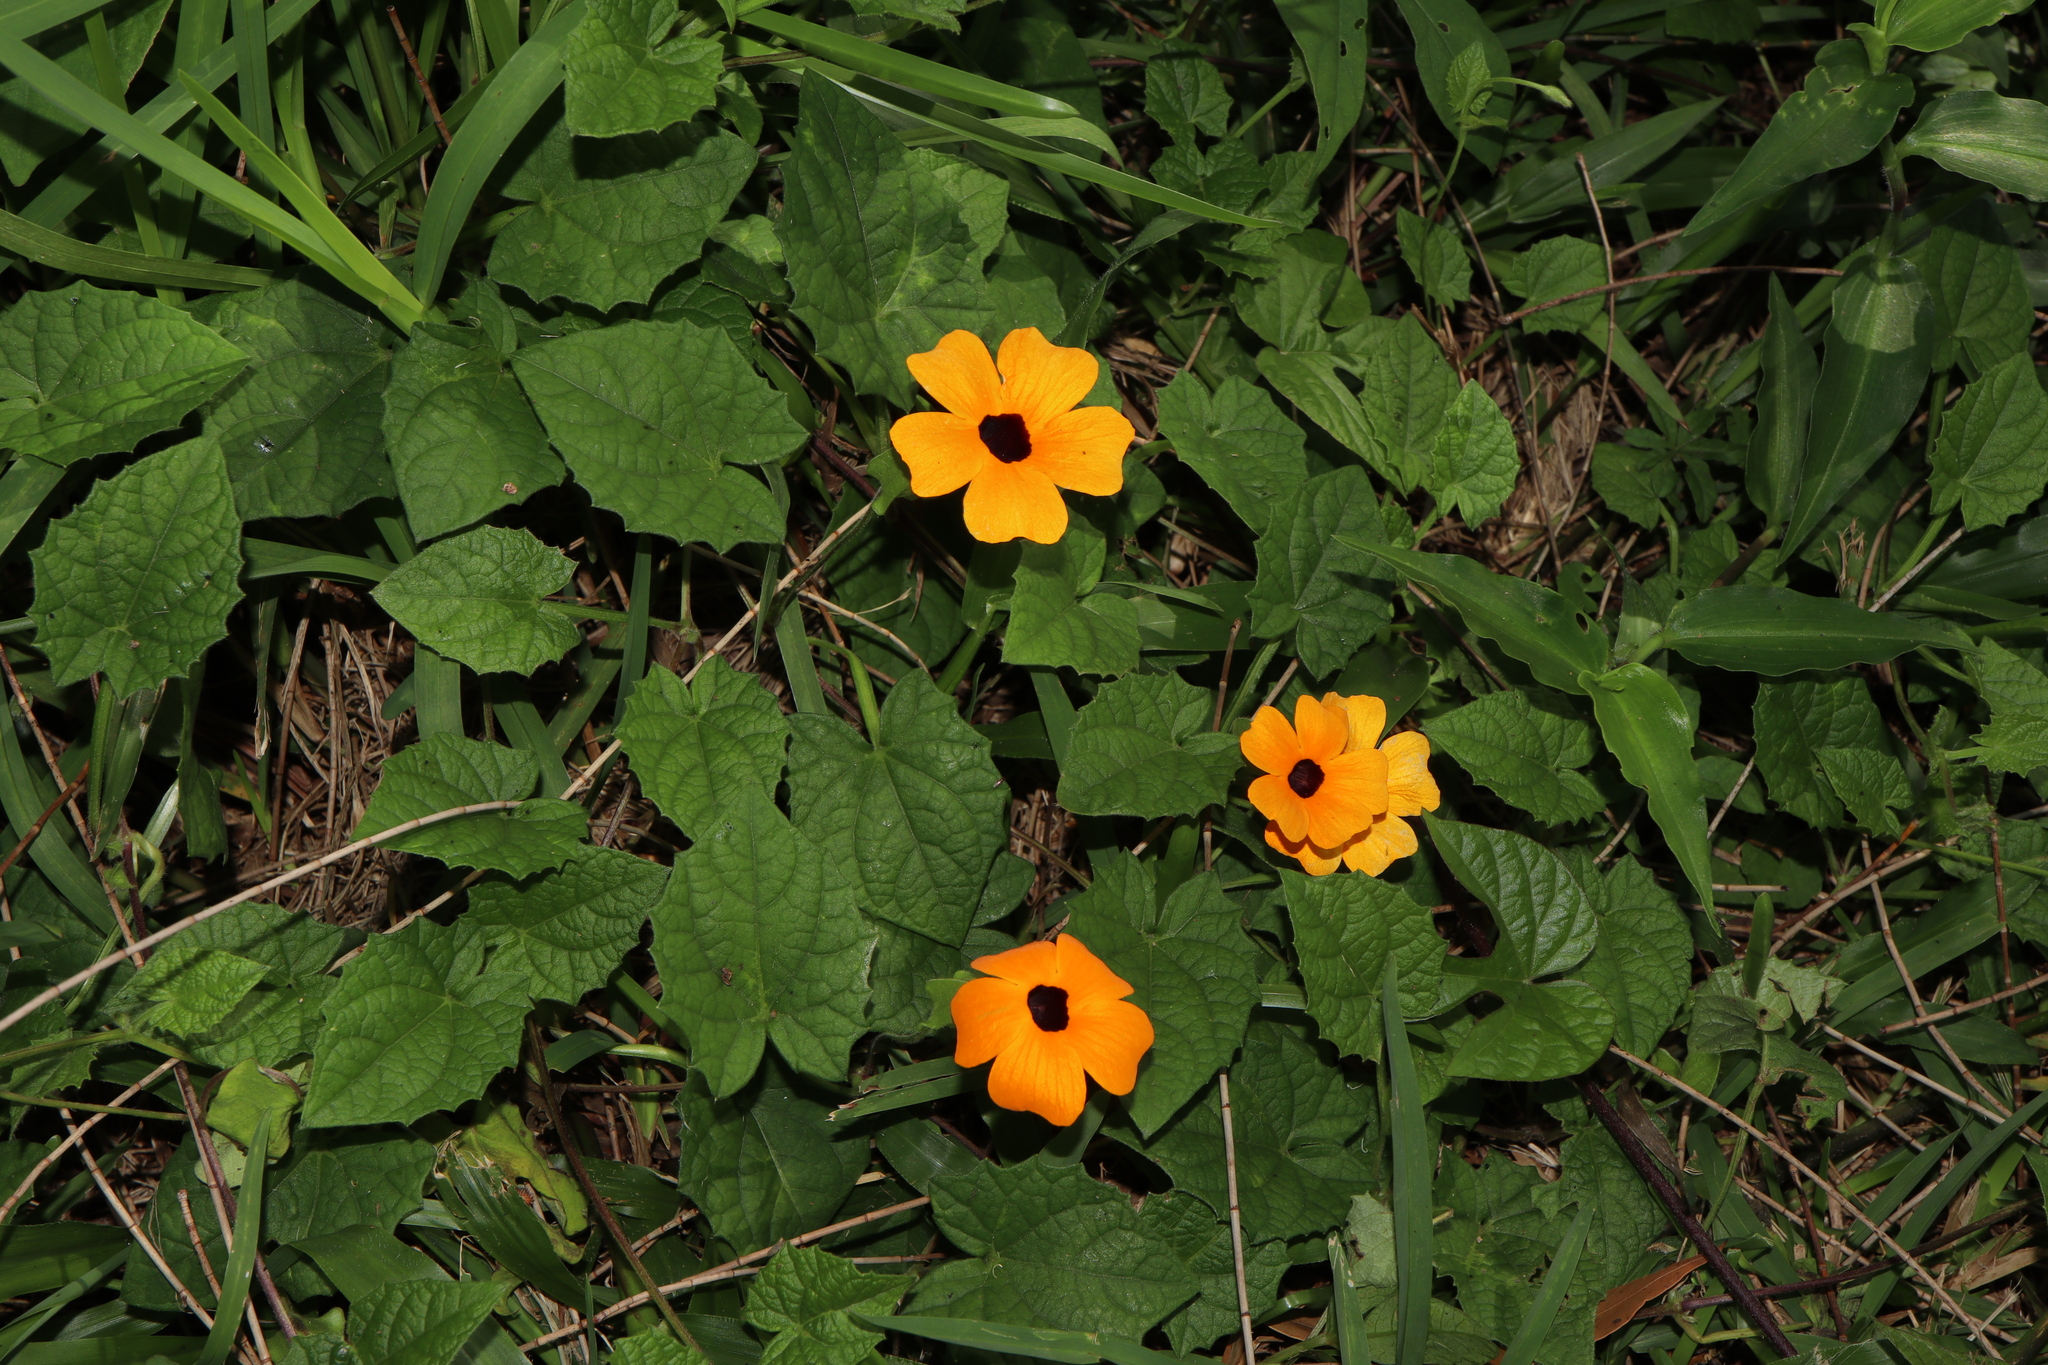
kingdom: Plantae
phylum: Tracheophyta
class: Magnoliopsida
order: Lamiales
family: Acanthaceae
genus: Thunbergia
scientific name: Thunbergia alata
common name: Blackeyed susan vine
